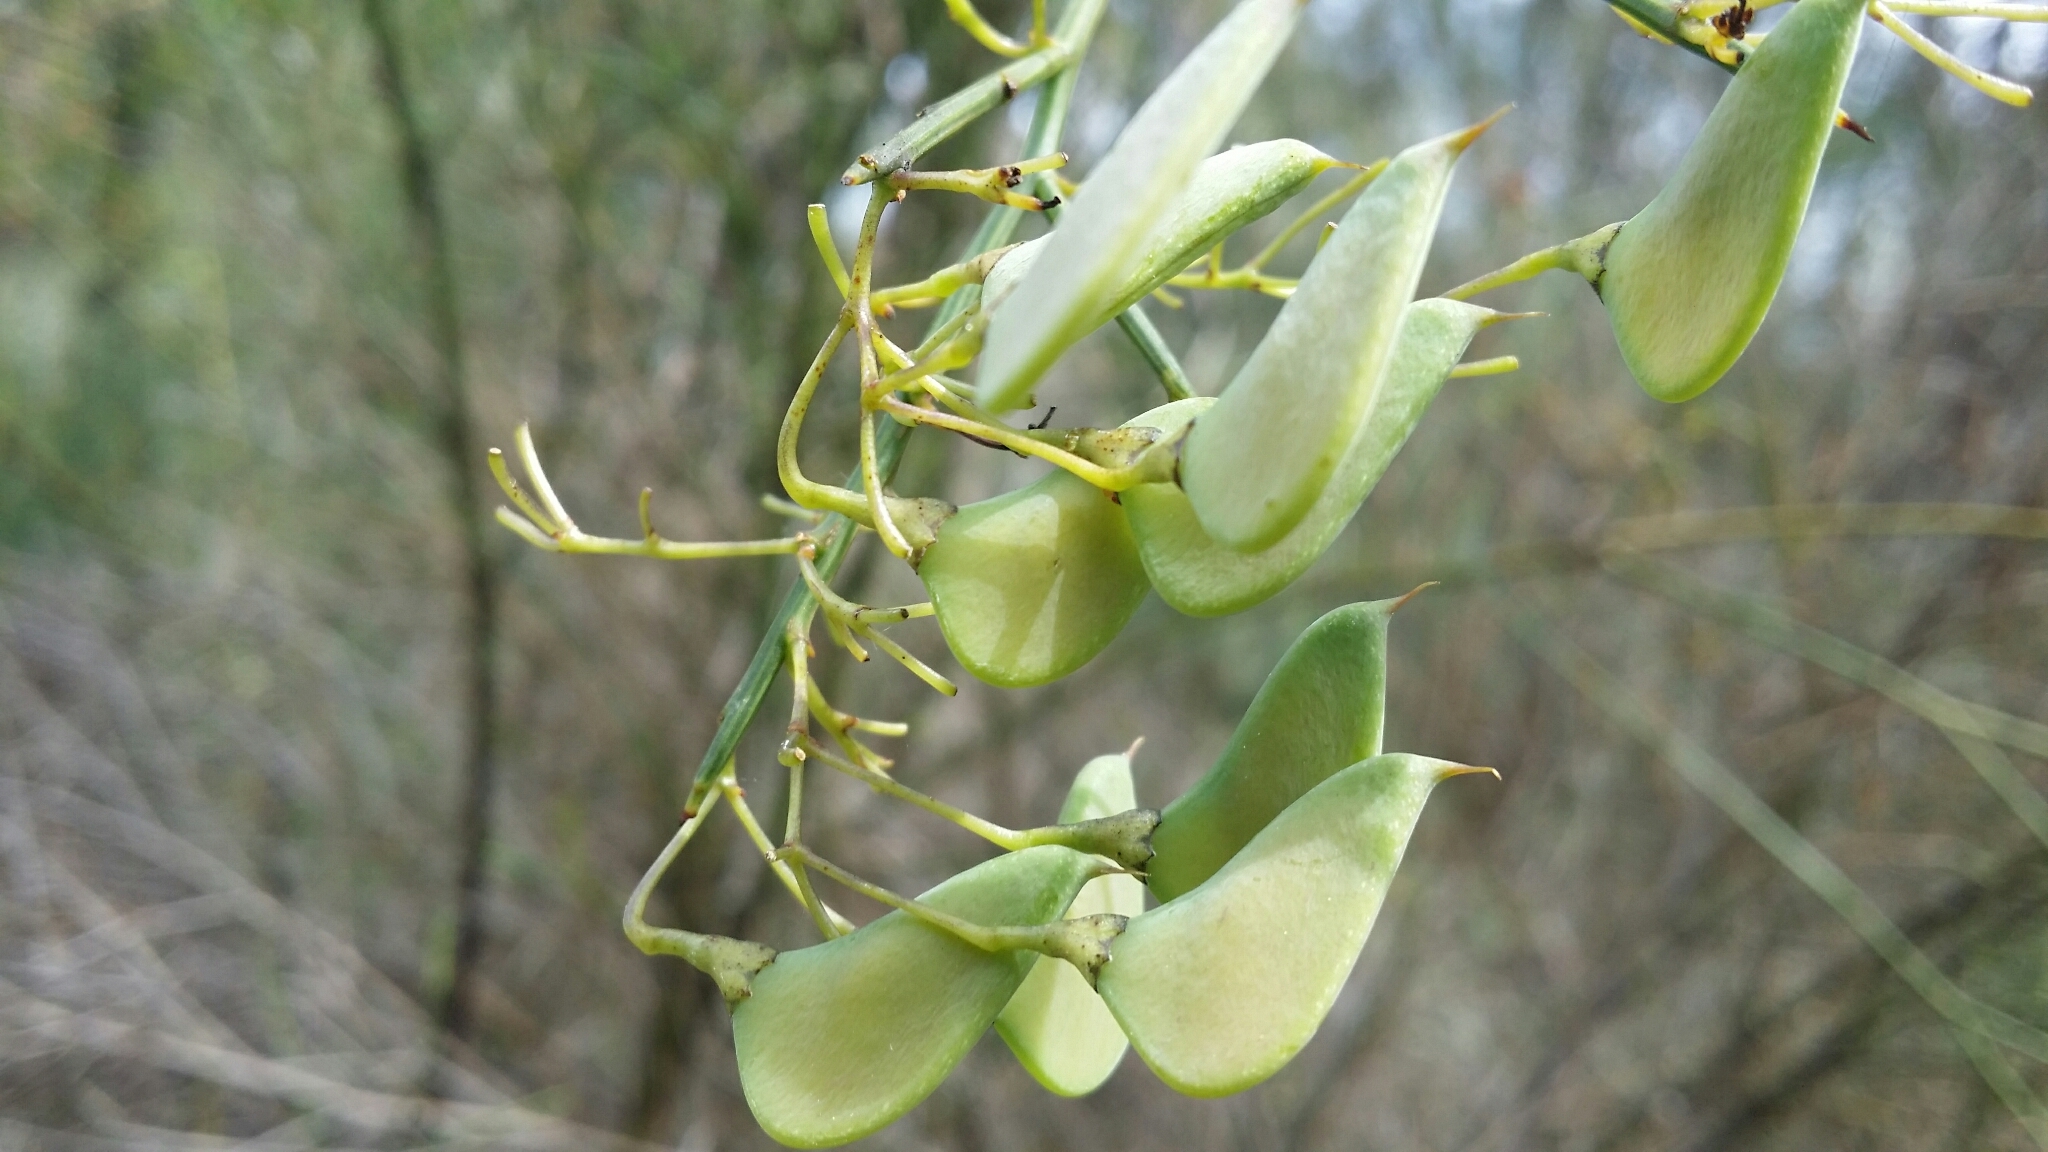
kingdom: Plantae
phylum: Tracheophyta
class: Magnoliopsida
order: Fabales
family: Fabaceae
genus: Daviesia
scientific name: Daviesia divaricata
